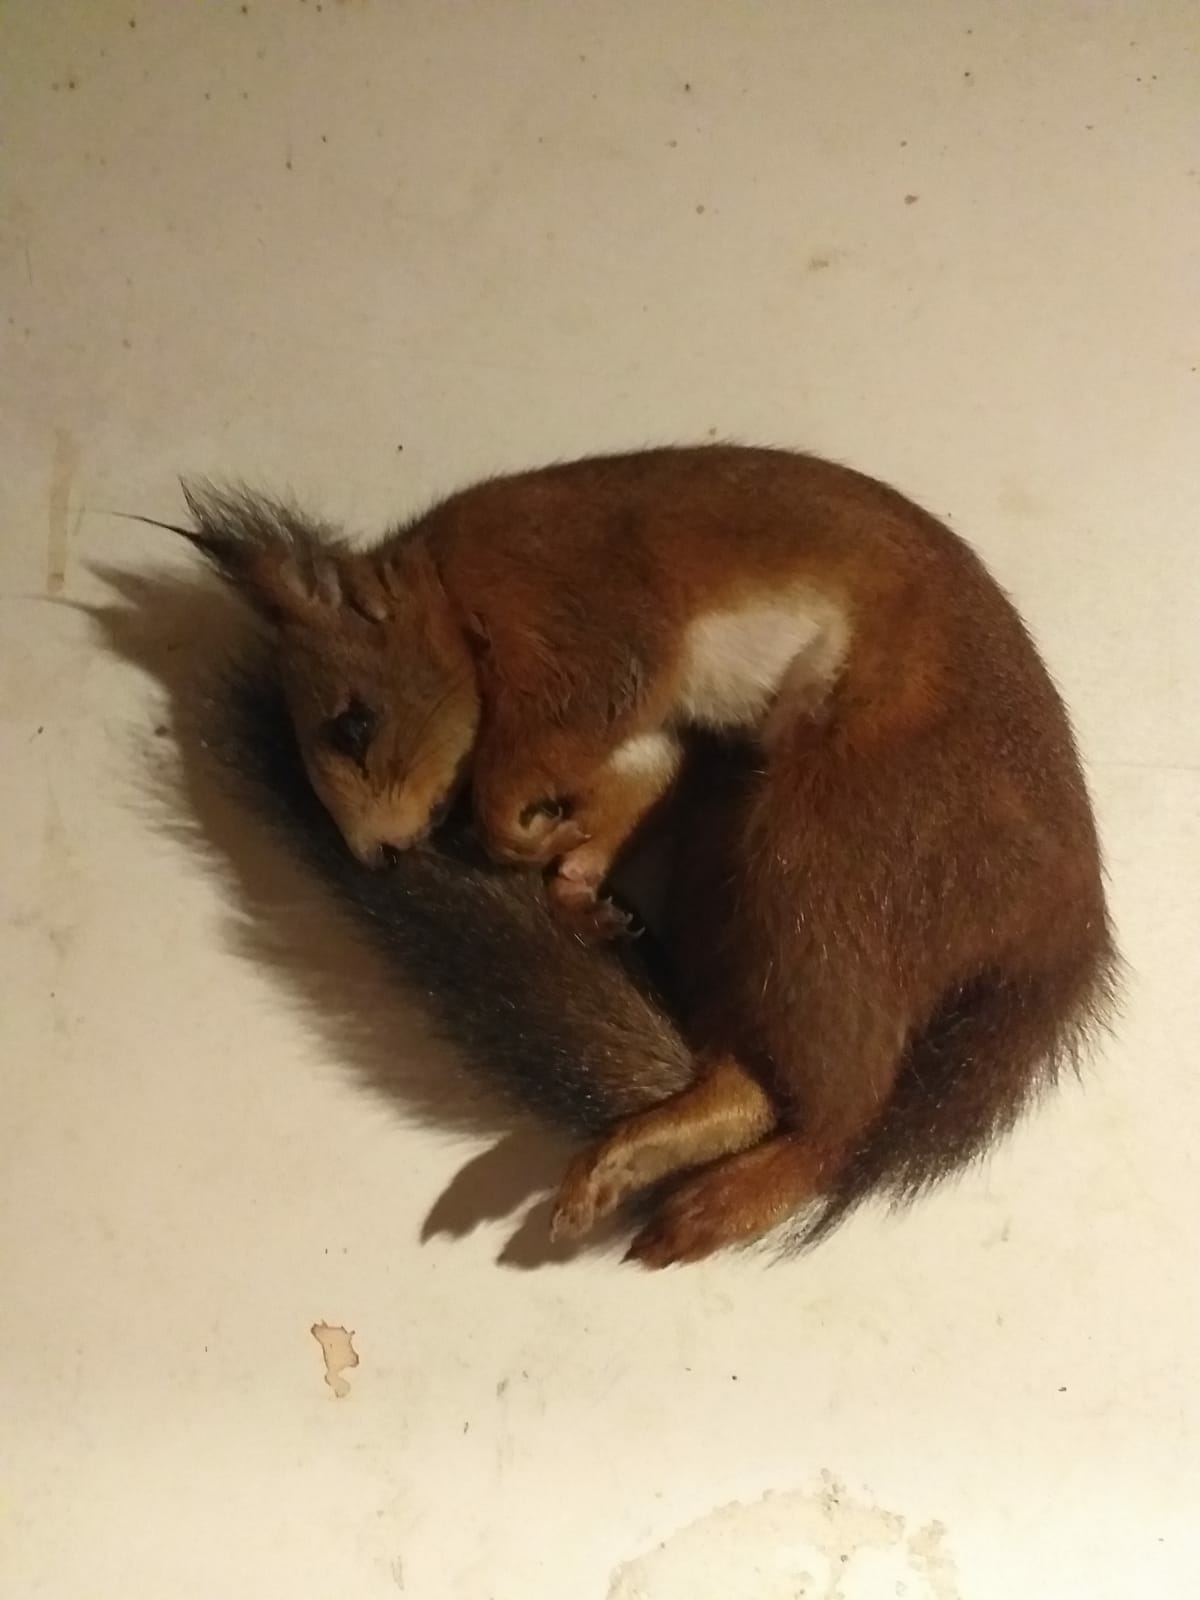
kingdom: Animalia
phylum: Chordata
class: Mammalia
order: Rodentia
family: Sciuridae
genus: Sciurus
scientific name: Sciurus vulgaris
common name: Eurasian red squirrel
